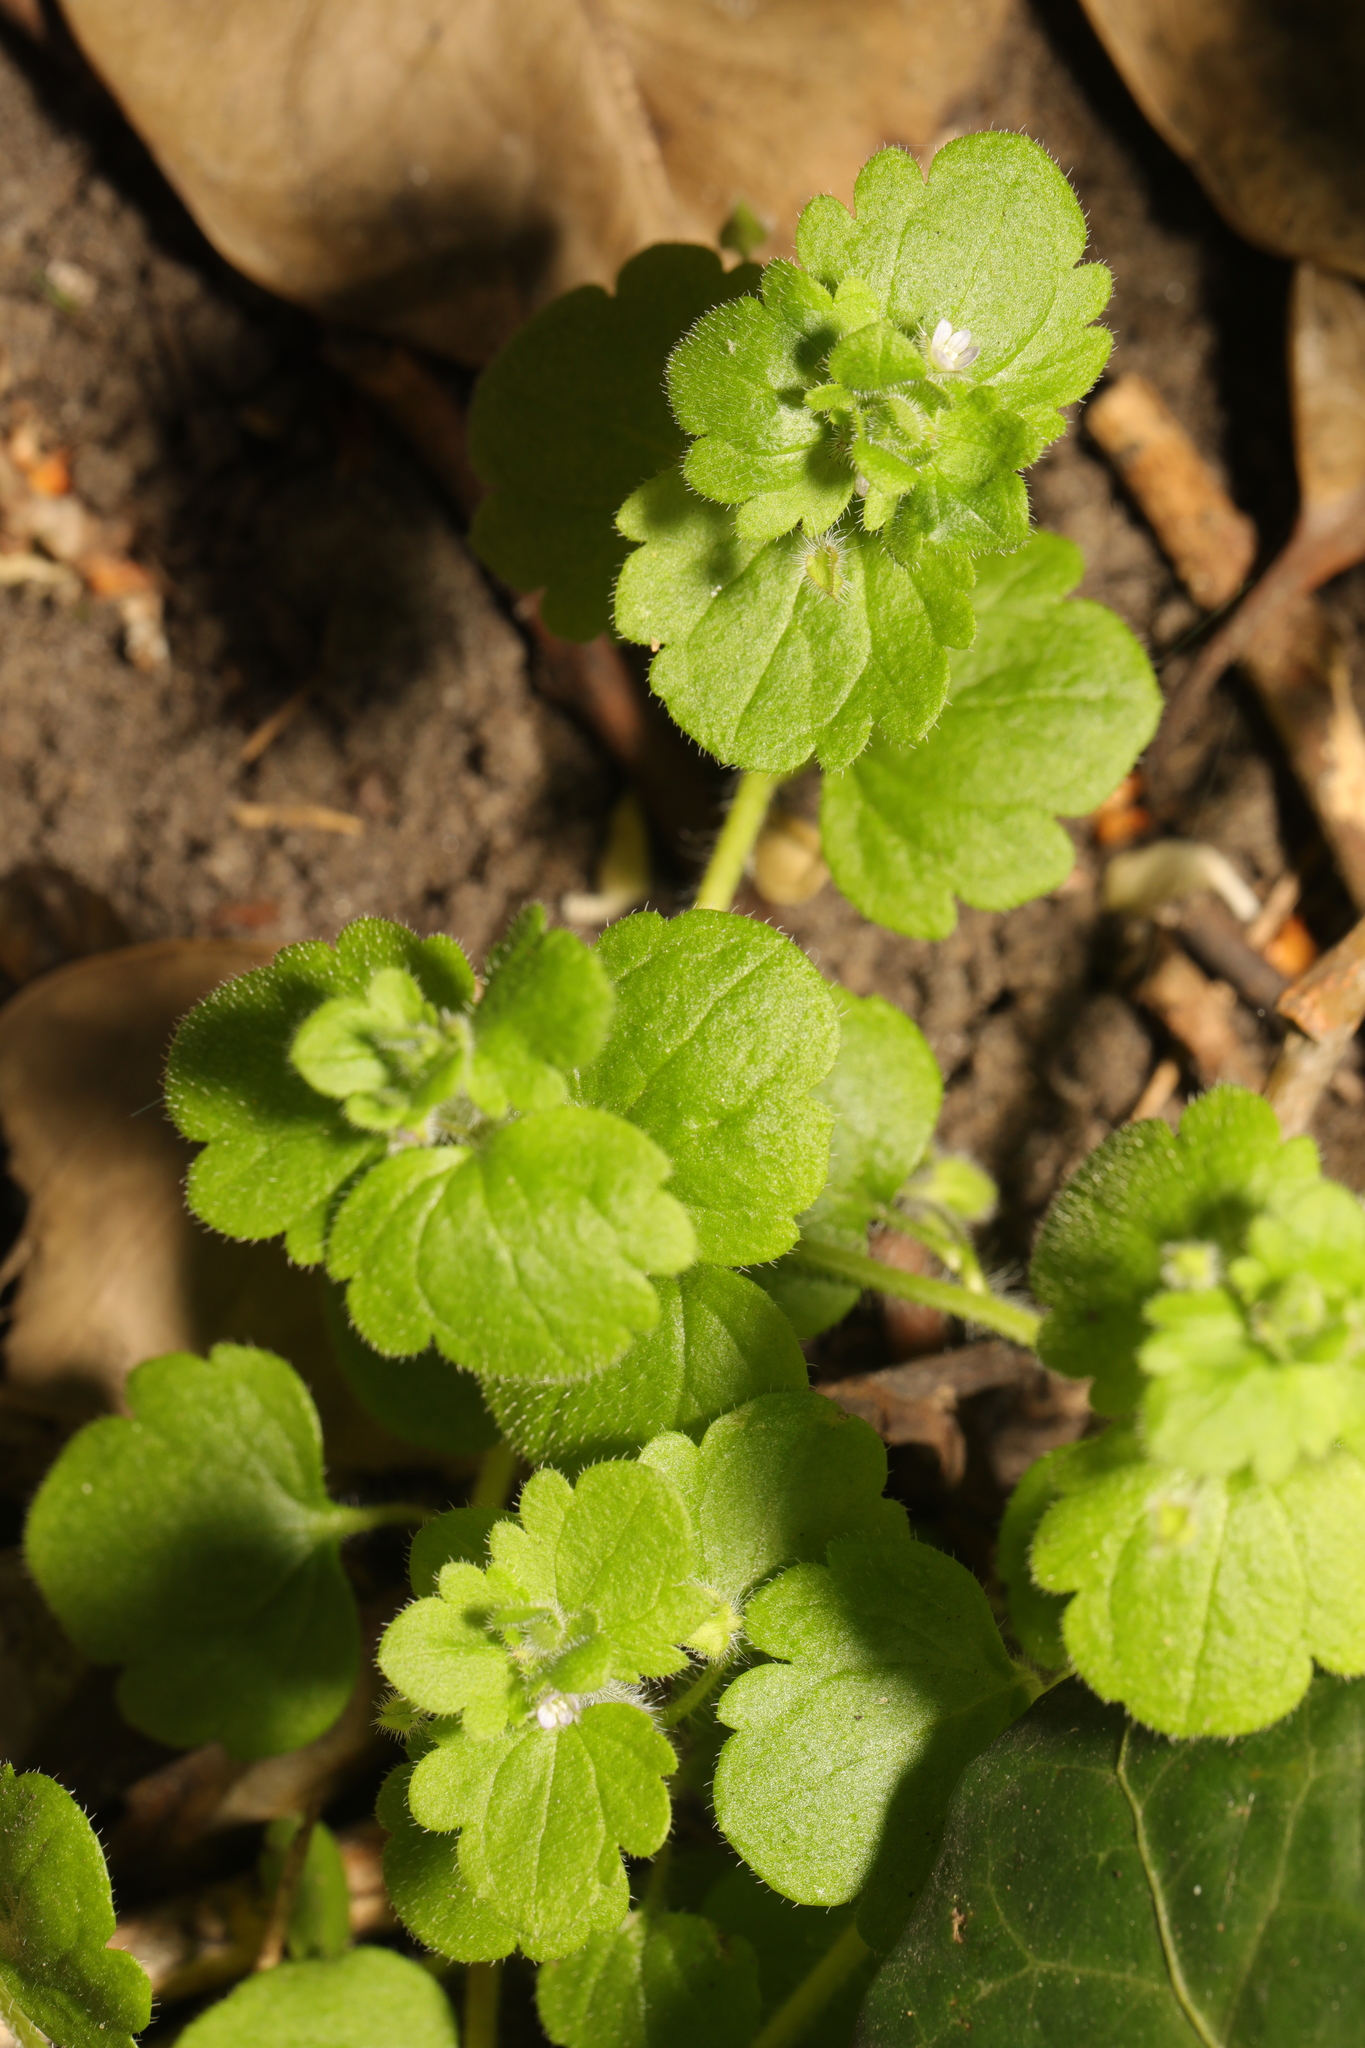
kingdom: Plantae
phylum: Tracheophyta
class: Magnoliopsida
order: Lamiales
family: Plantaginaceae
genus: Veronica
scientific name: Veronica sublobata
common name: False ivy-leaved speedwell
